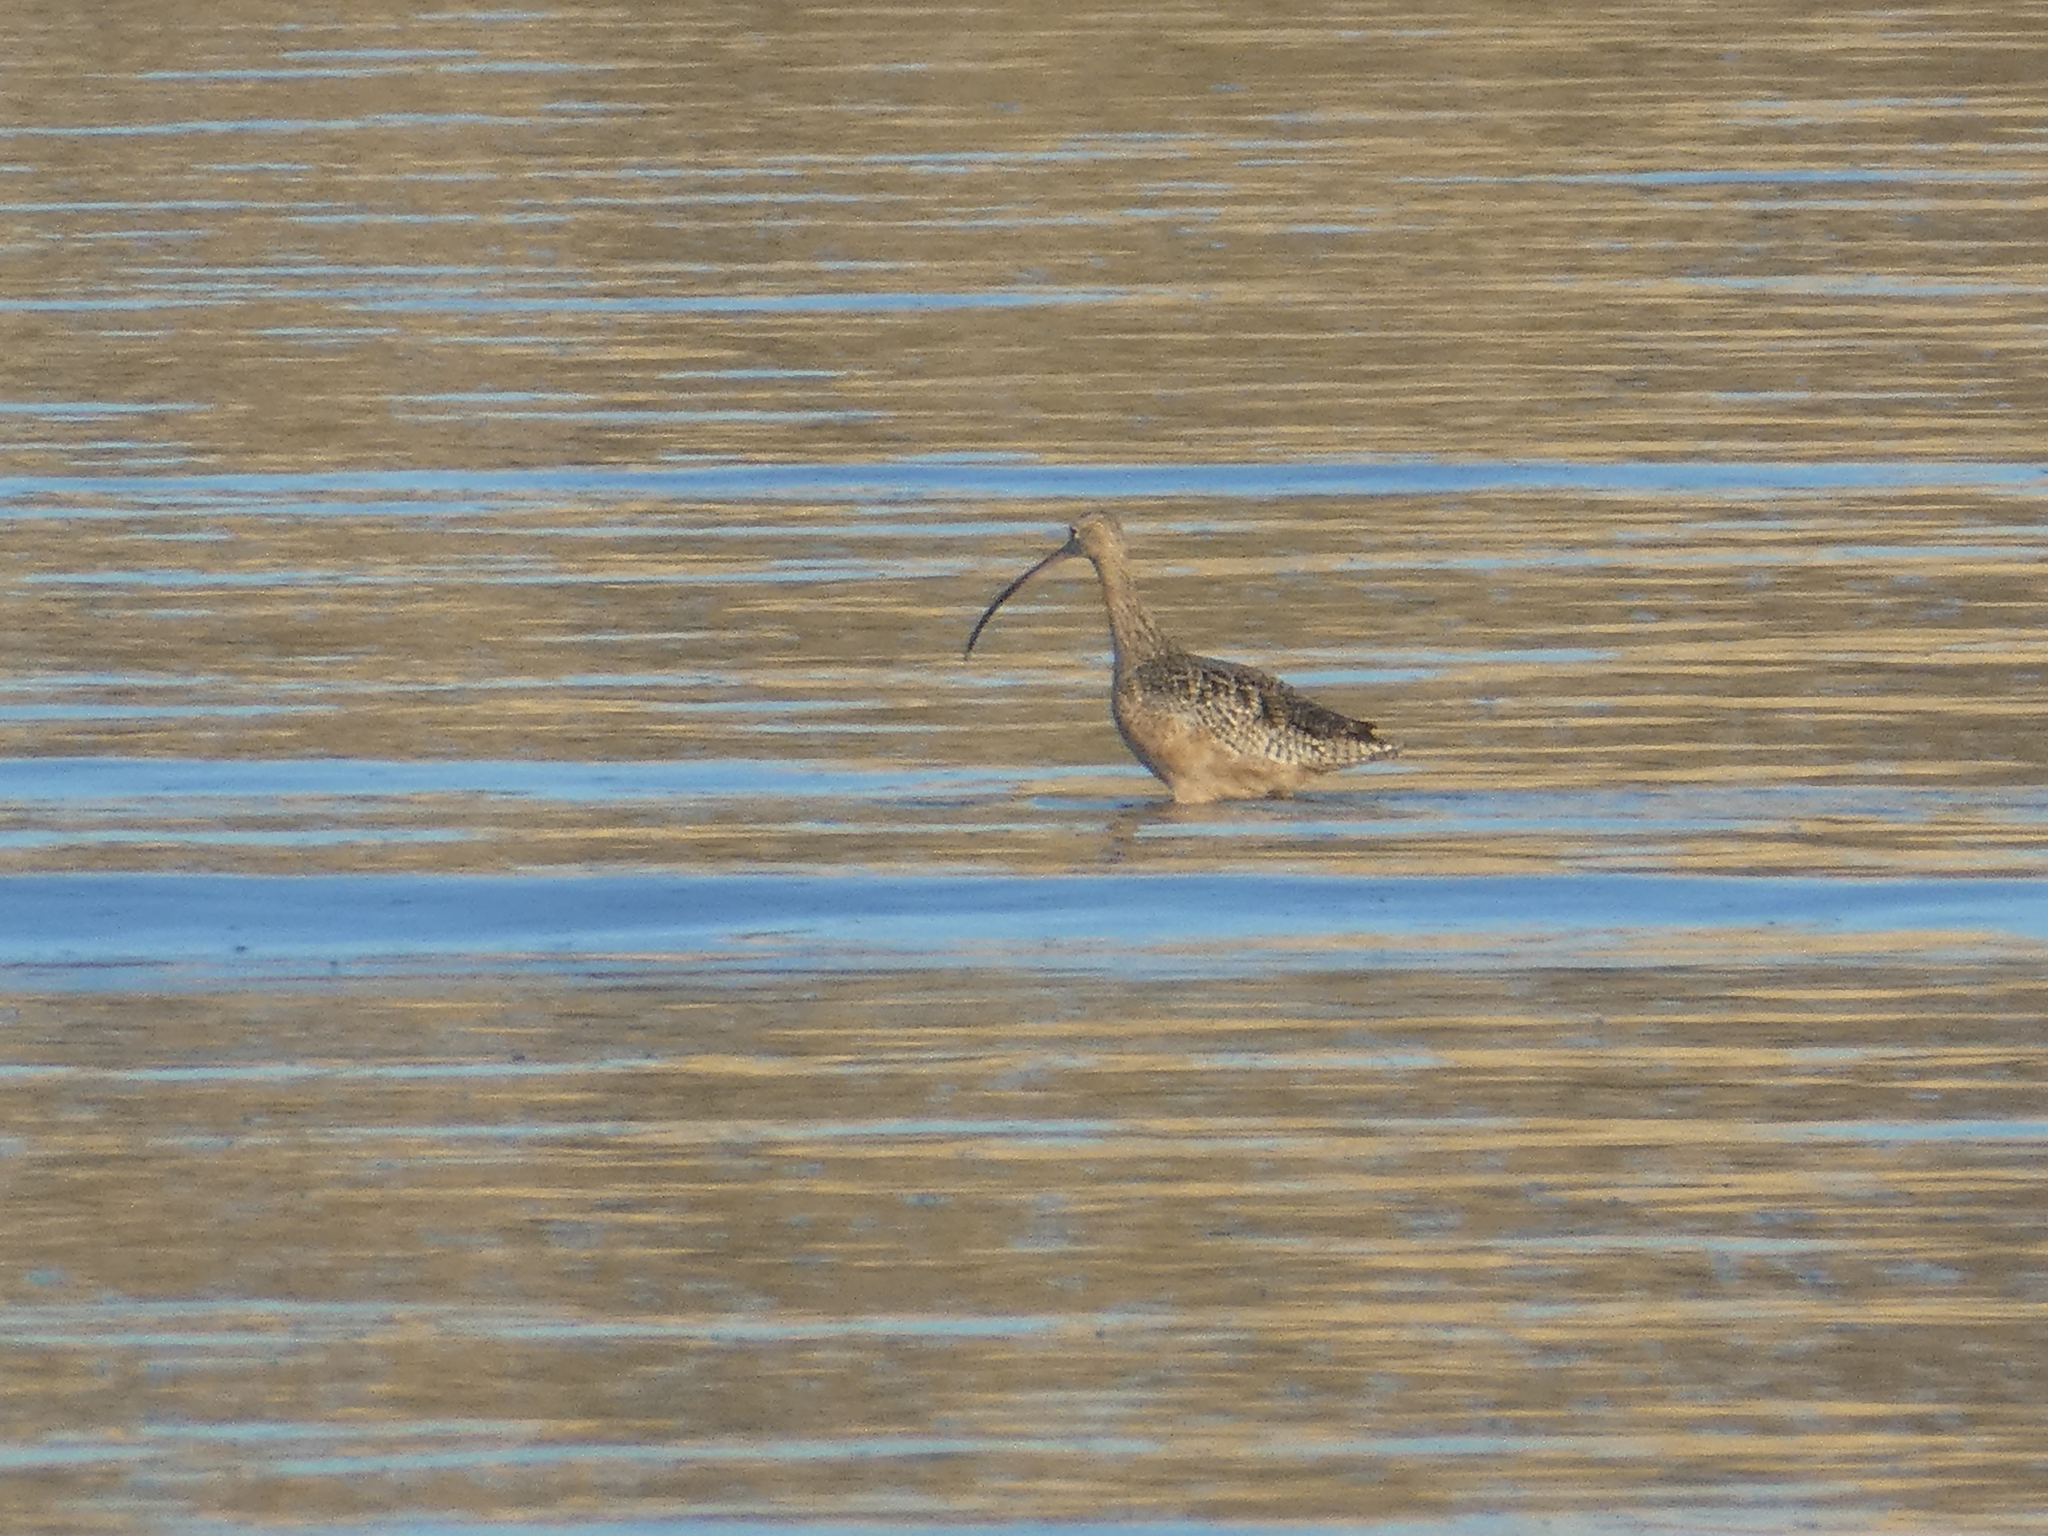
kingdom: Animalia
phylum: Chordata
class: Aves
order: Charadriiformes
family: Scolopacidae
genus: Numenius
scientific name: Numenius americanus
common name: Long-billed curlew
